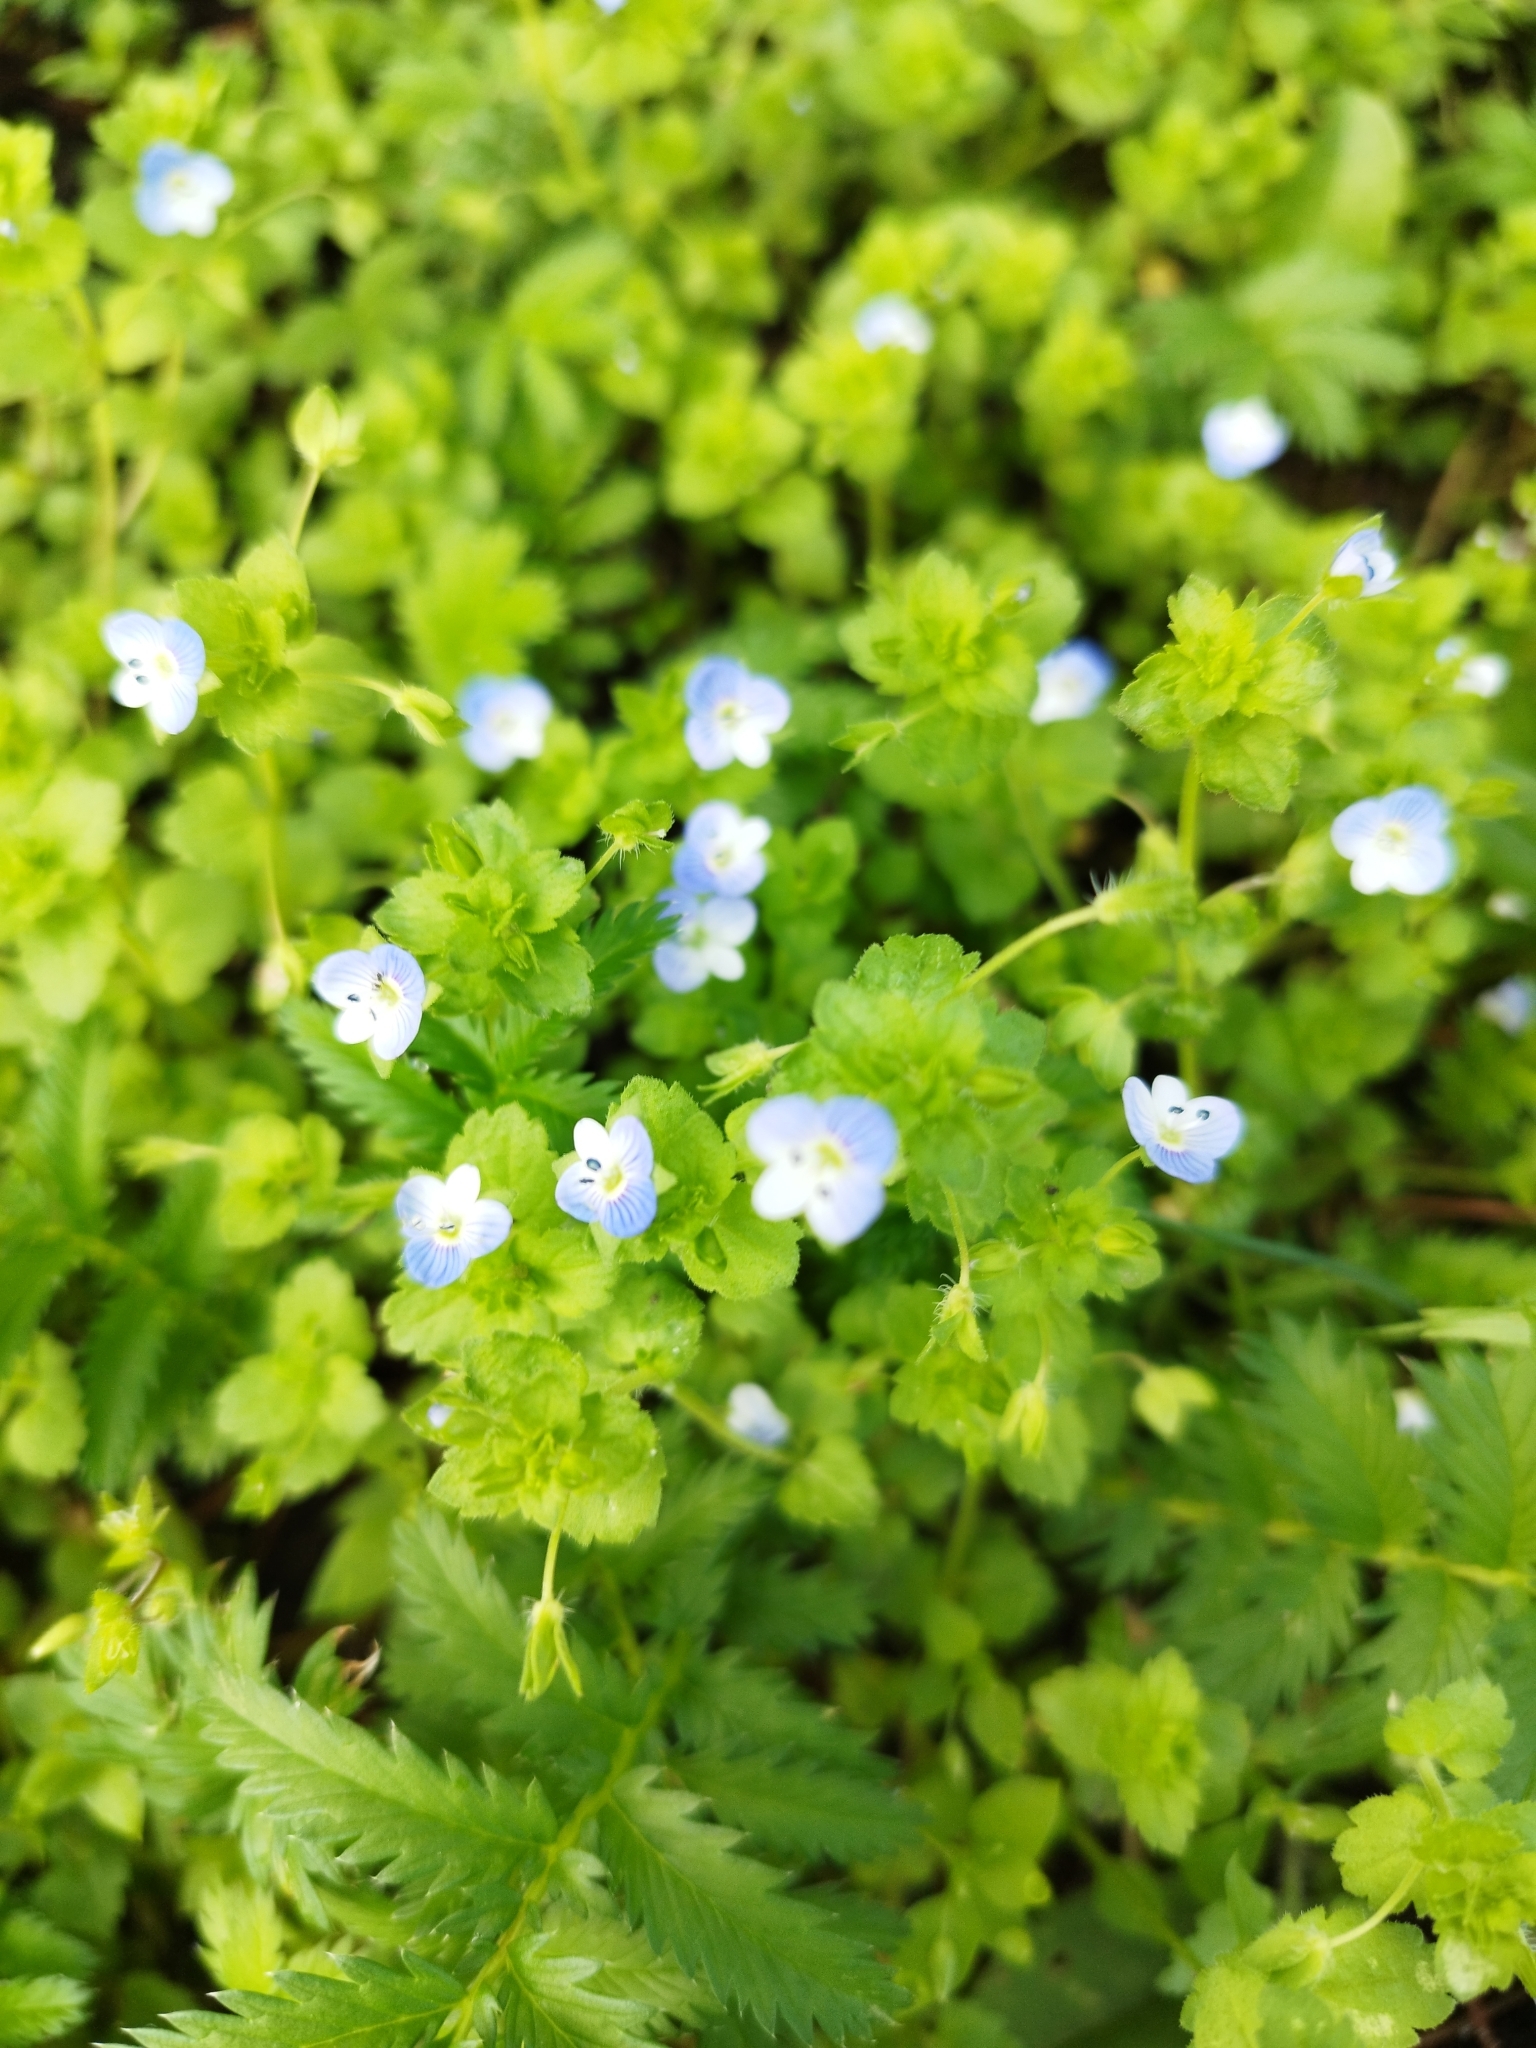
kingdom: Plantae
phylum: Tracheophyta
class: Magnoliopsida
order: Lamiales
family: Plantaginaceae
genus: Veronica
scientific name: Veronica persica
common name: Common field-speedwell
